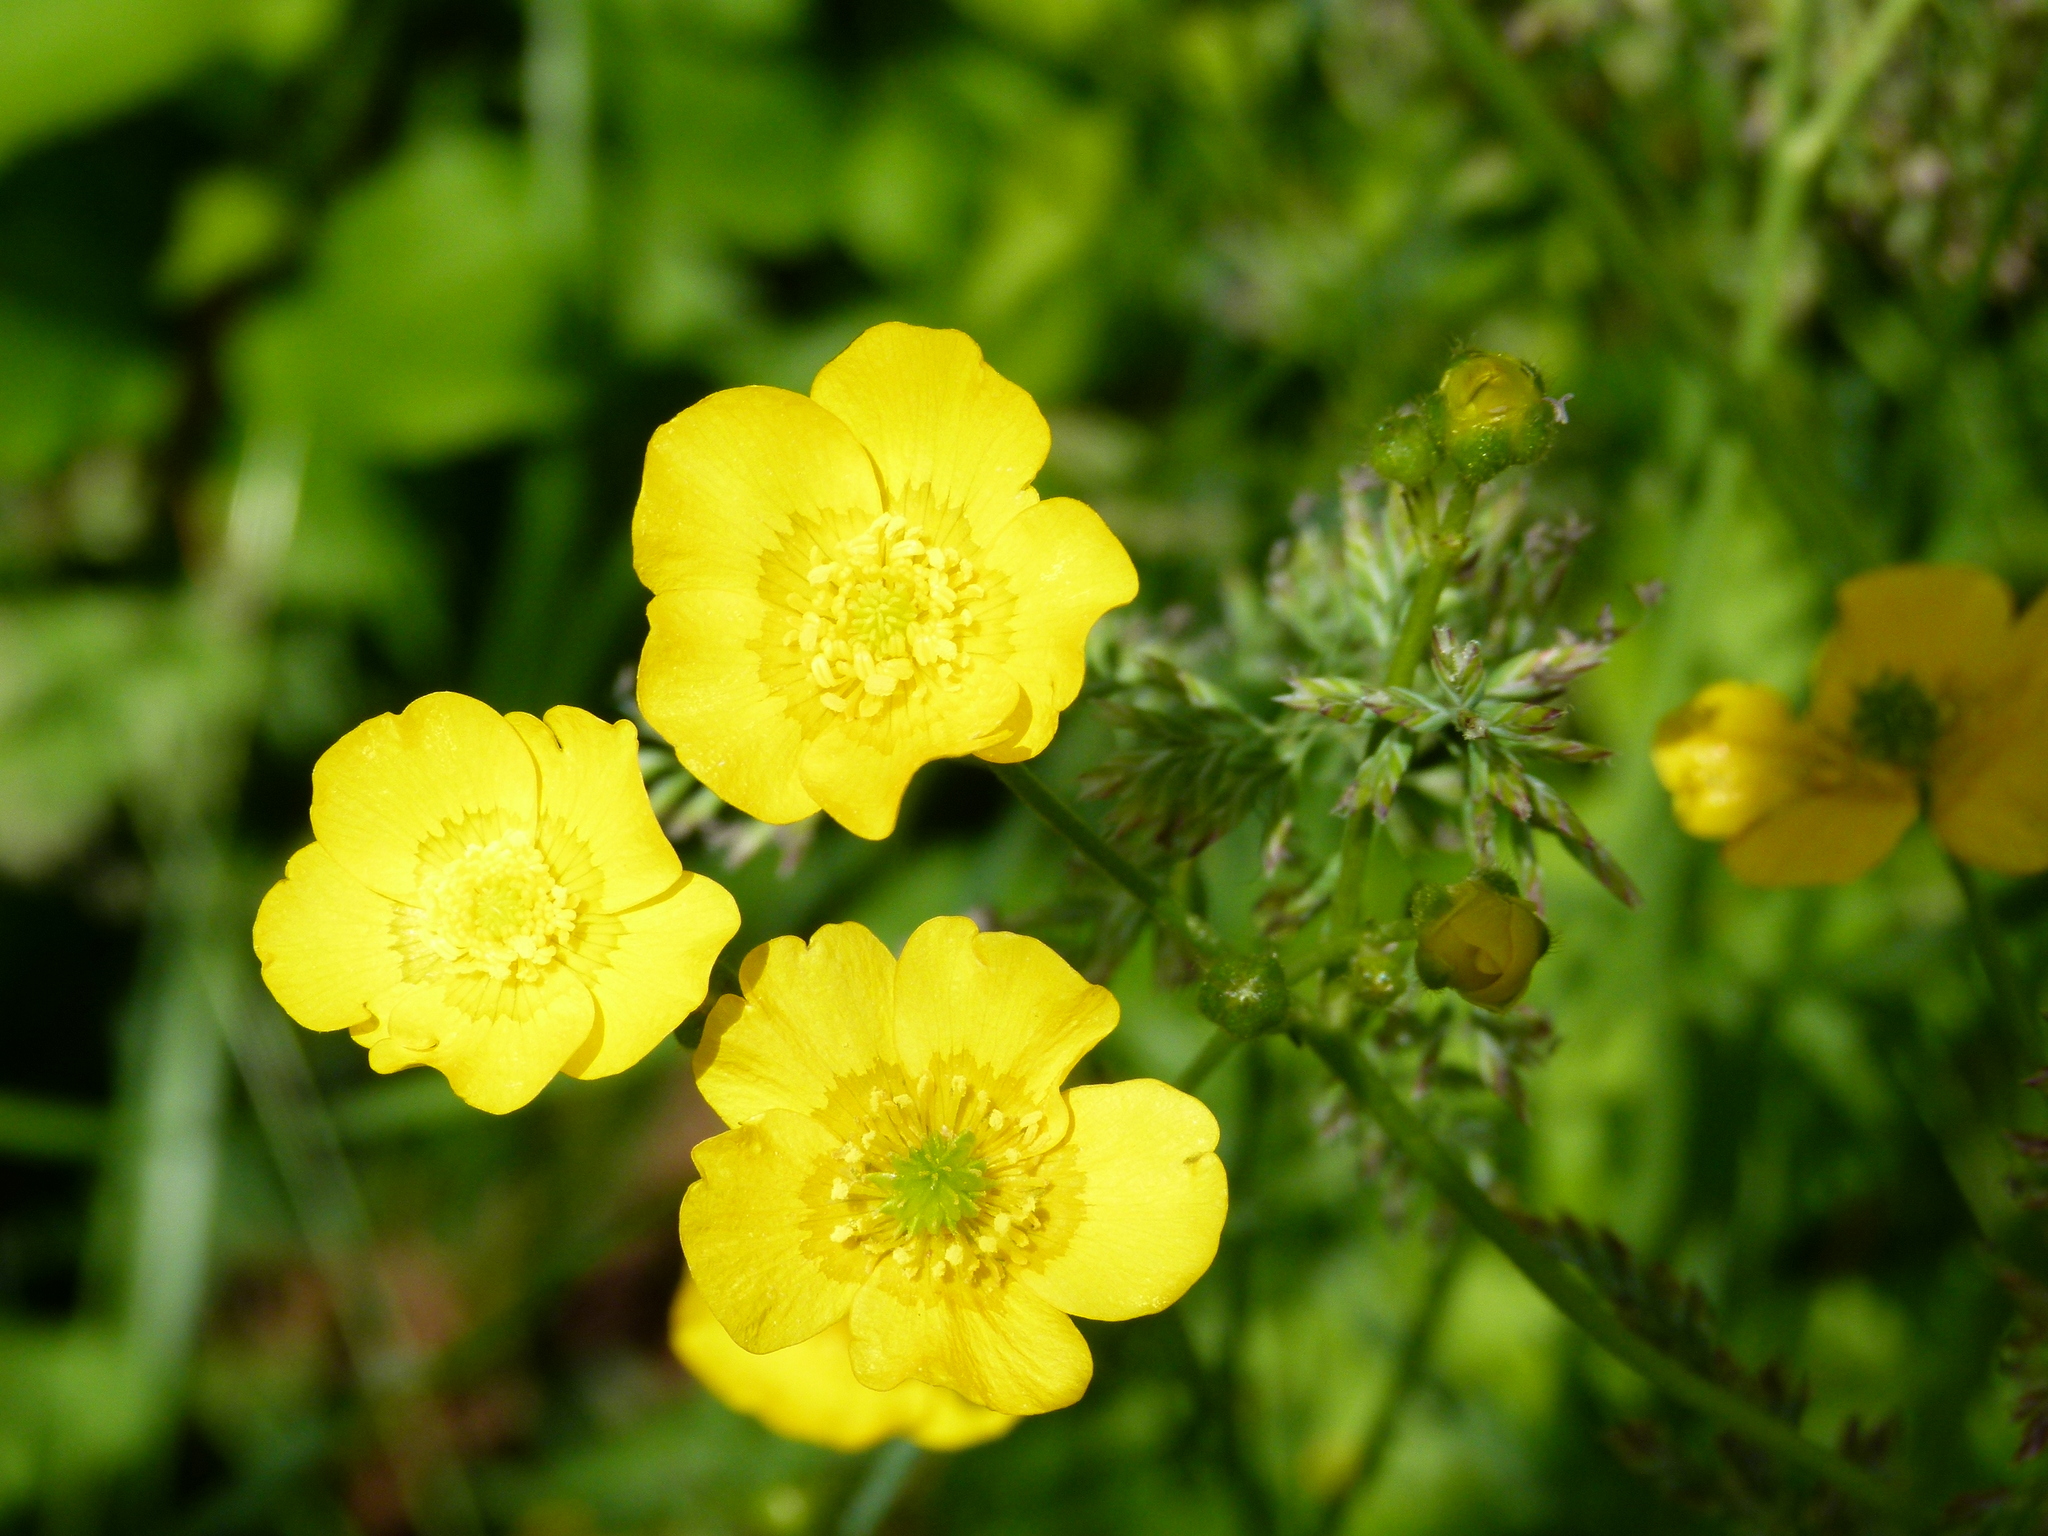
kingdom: Plantae
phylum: Tracheophyta
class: Magnoliopsida
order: Ranunculales
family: Ranunculaceae
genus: Ranunculus
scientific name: Ranunculus acris
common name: Meadow buttercup
